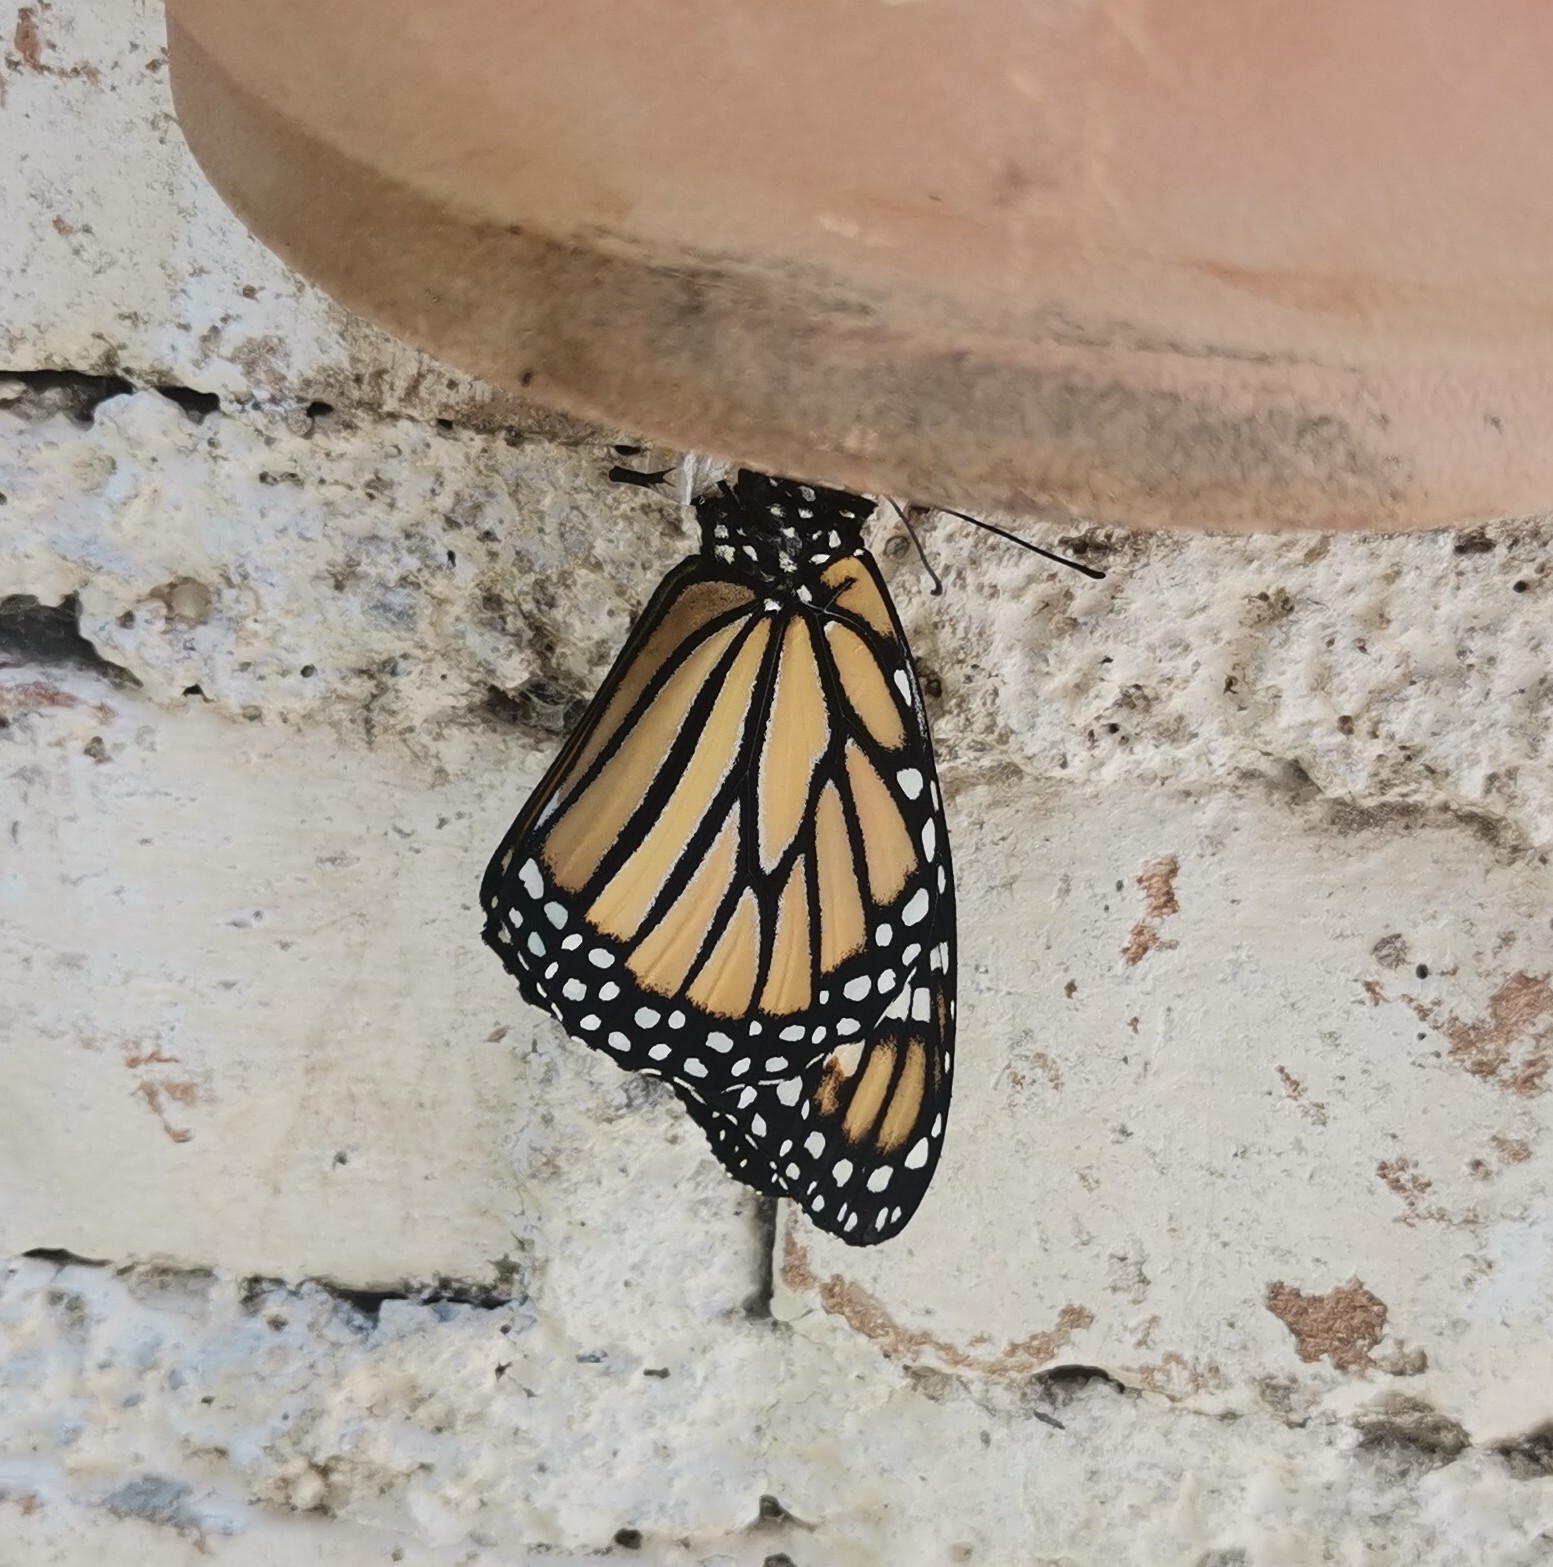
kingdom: Animalia
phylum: Arthropoda
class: Insecta
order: Lepidoptera
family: Nymphalidae
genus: Danaus
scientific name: Danaus plexippus
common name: Monarch
